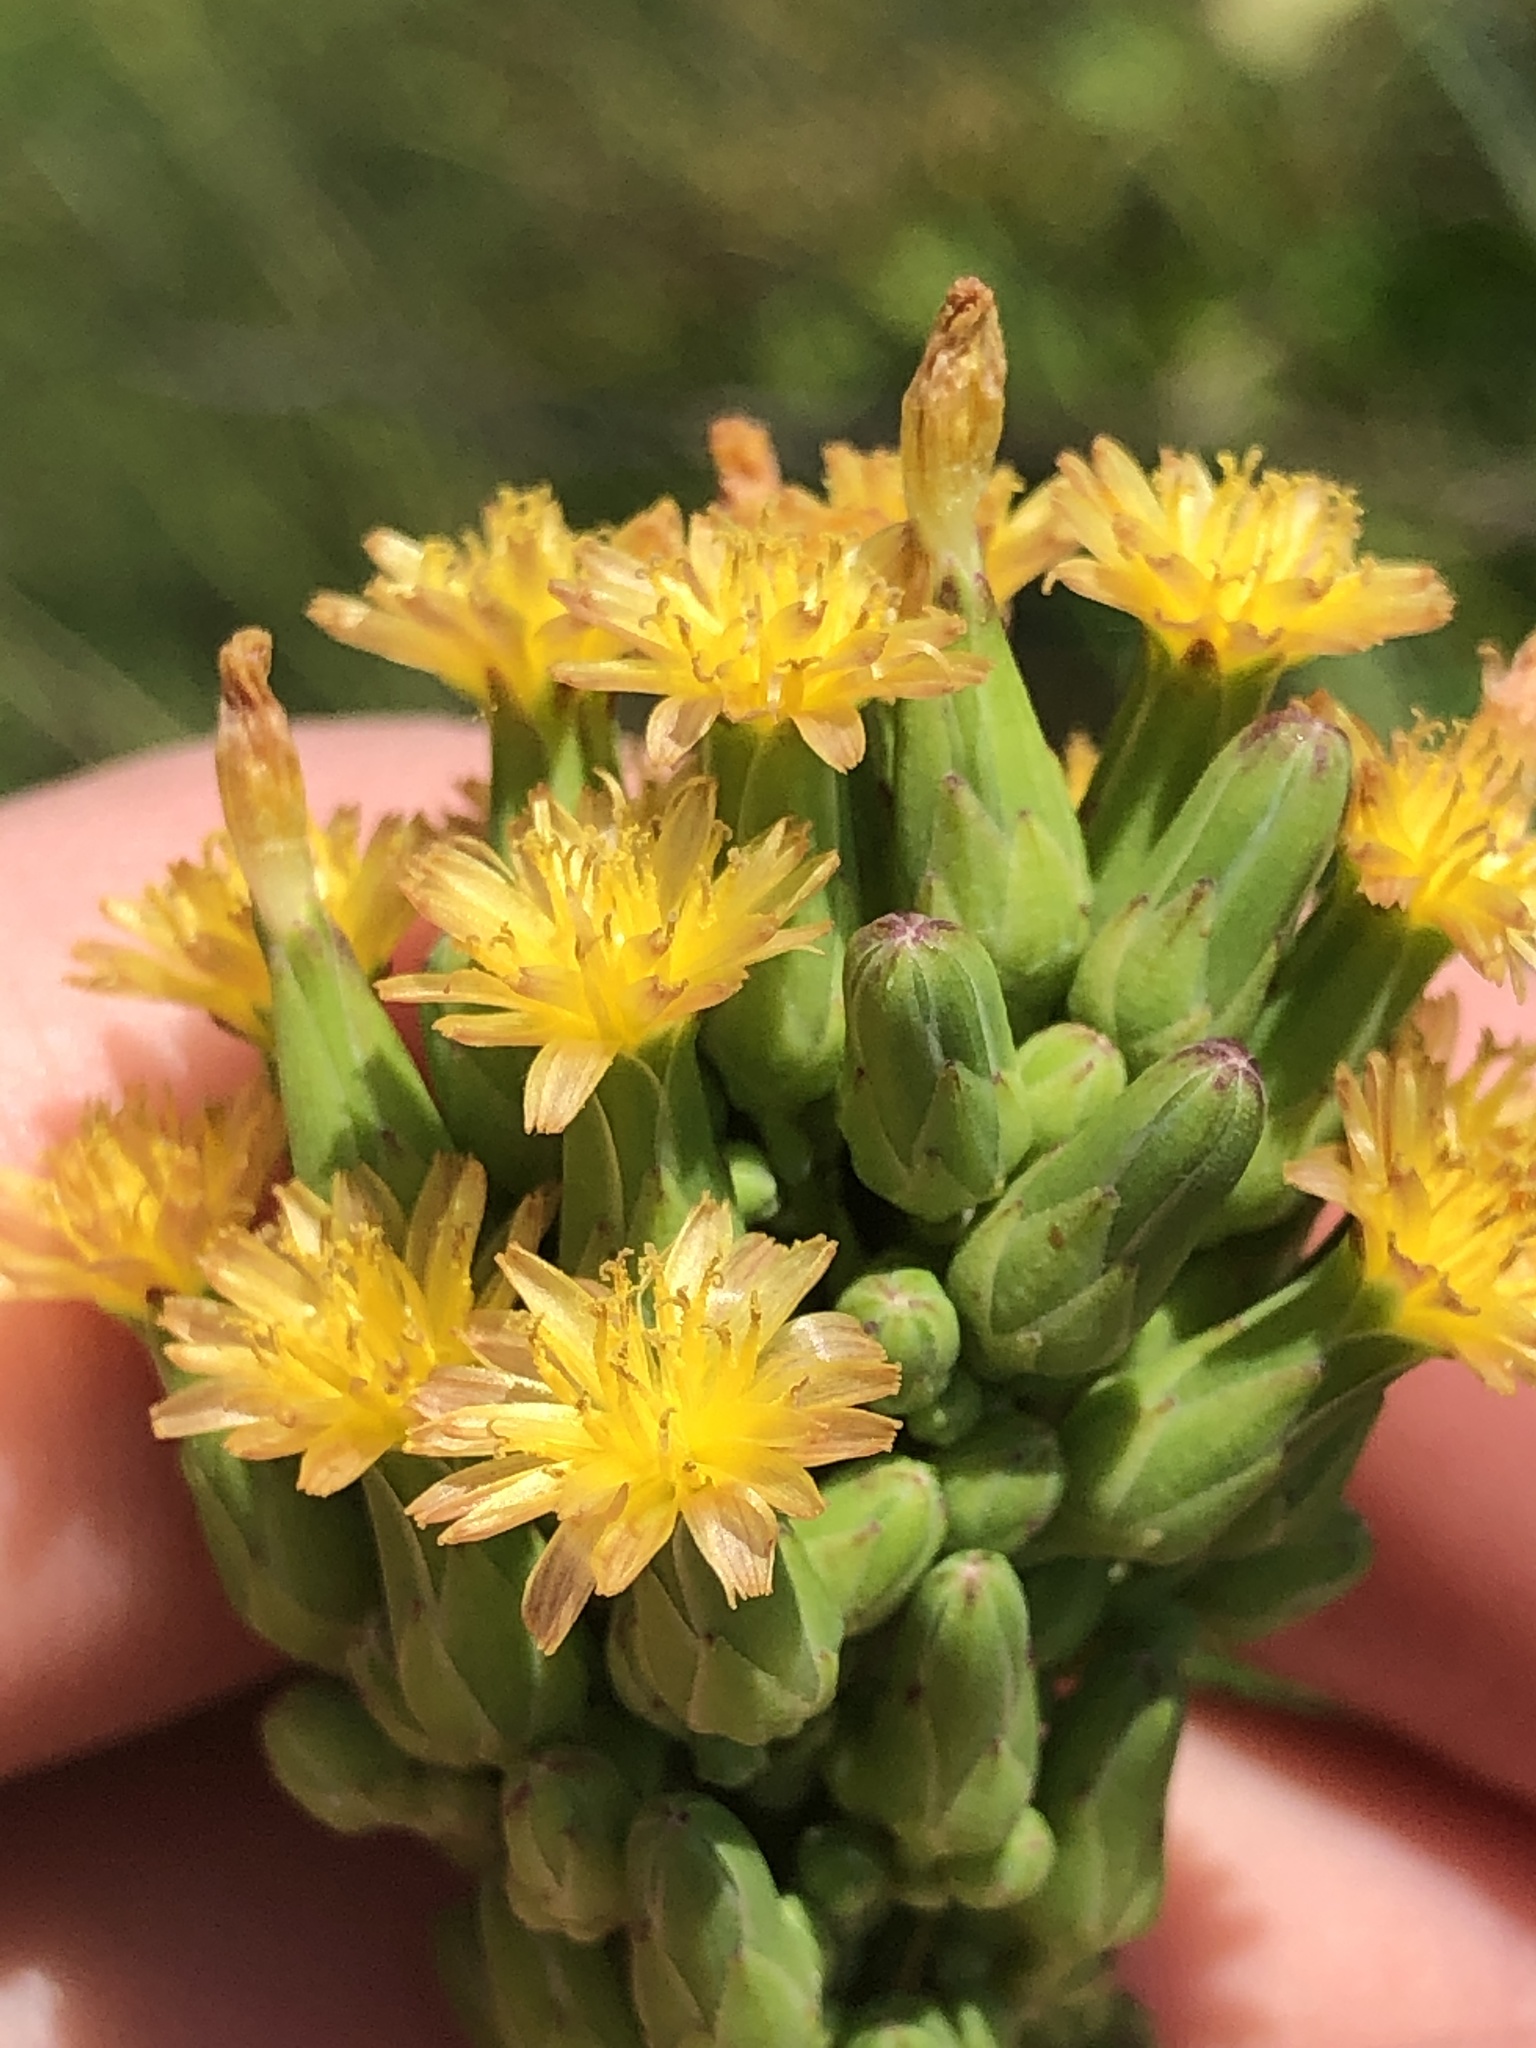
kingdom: Plantae
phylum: Tracheophyta
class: Magnoliopsida
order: Asterales
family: Asteraceae
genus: Lactuca
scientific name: Lactuca canadensis
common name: Canada lettuce
